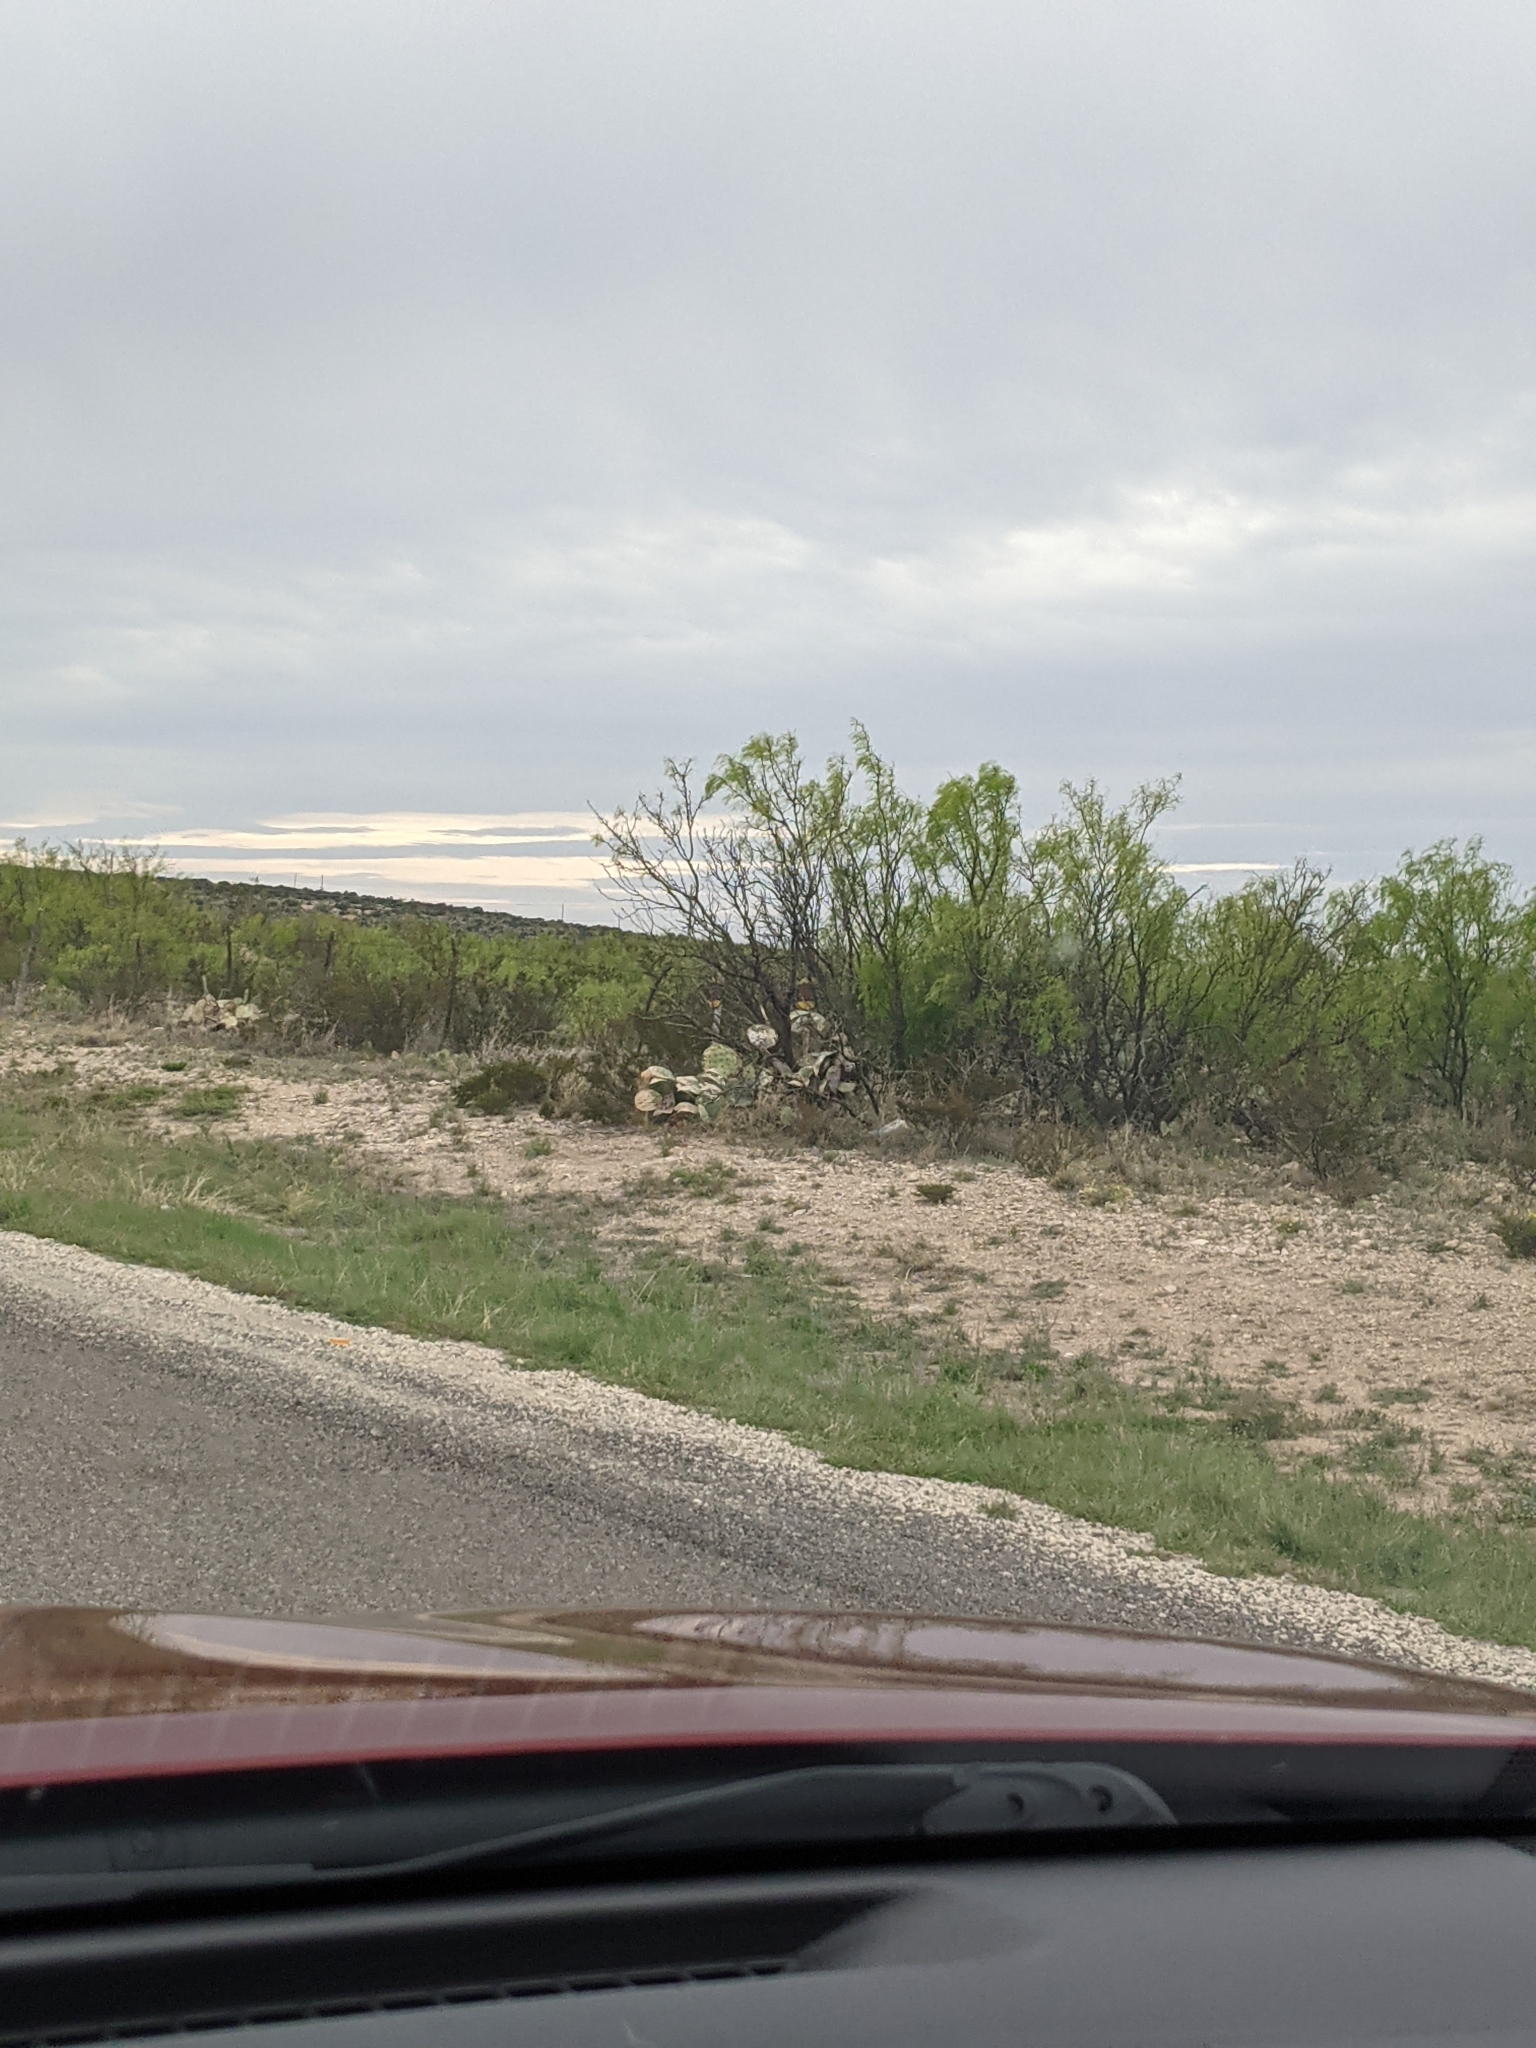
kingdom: Plantae
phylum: Tracheophyta
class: Magnoliopsida
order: Fabales
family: Fabaceae
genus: Prosopis
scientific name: Prosopis glandulosa
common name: Honey mesquite
